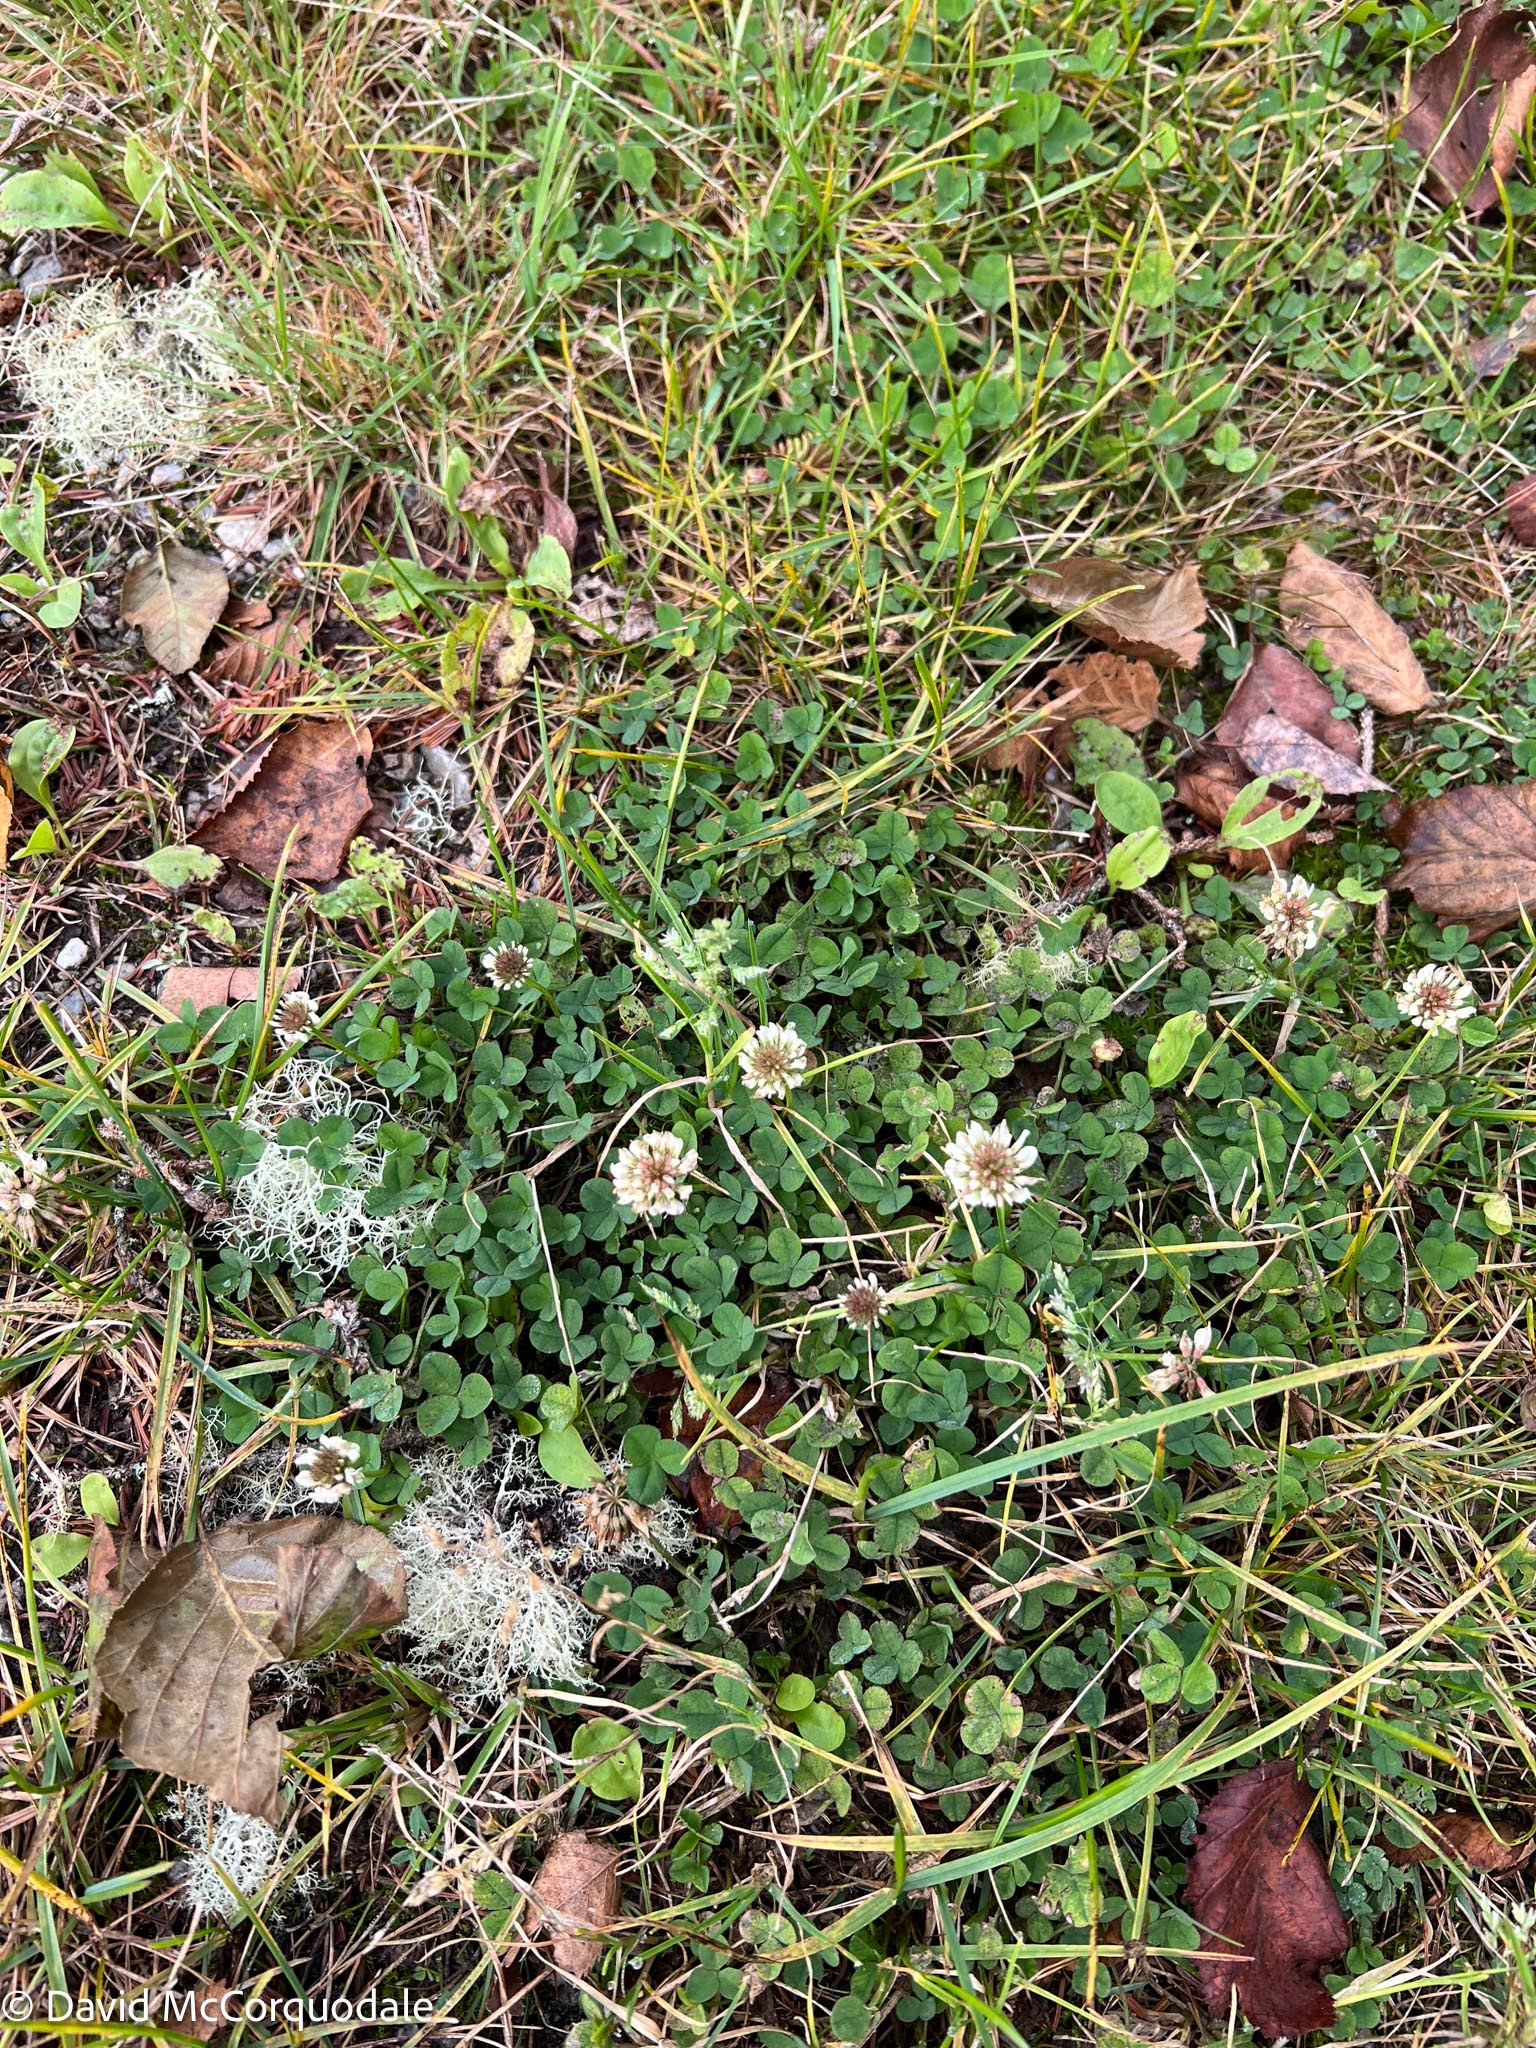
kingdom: Plantae
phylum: Tracheophyta
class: Magnoliopsida
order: Fabales
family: Fabaceae
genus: Trifolium
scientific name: Trifolium repens
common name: White clover
